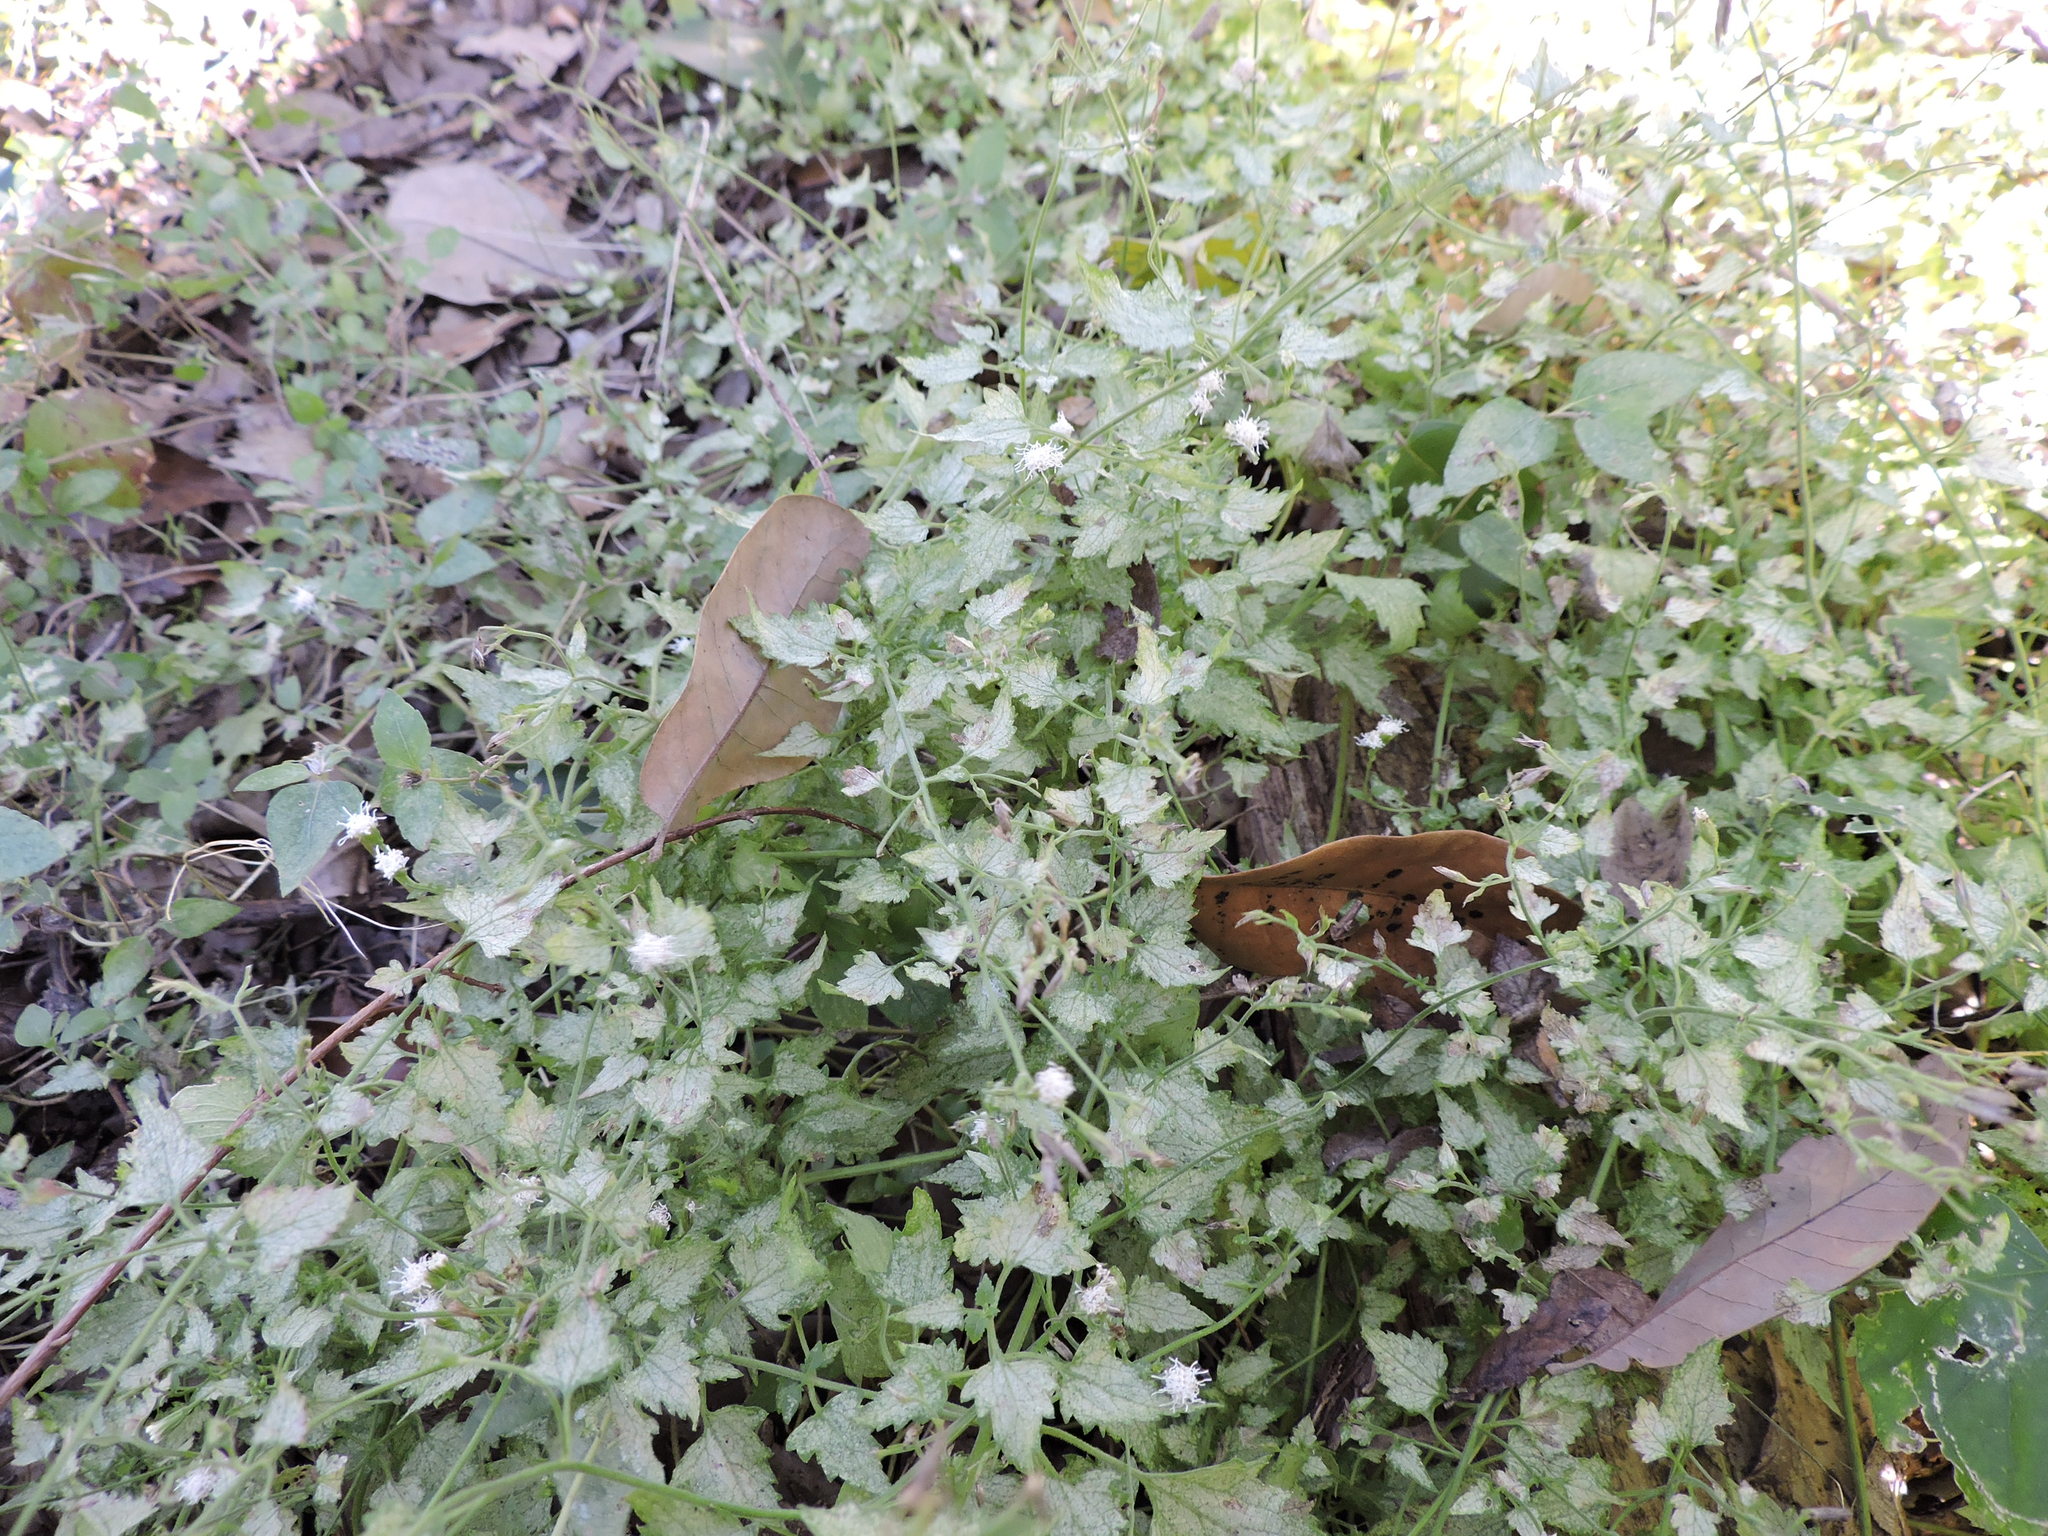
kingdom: Plantae
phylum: Tracheophyta
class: Magnoliopsida
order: Asterales
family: Asteraceae
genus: Fleischmannia
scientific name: Fleischmannia incarnata
